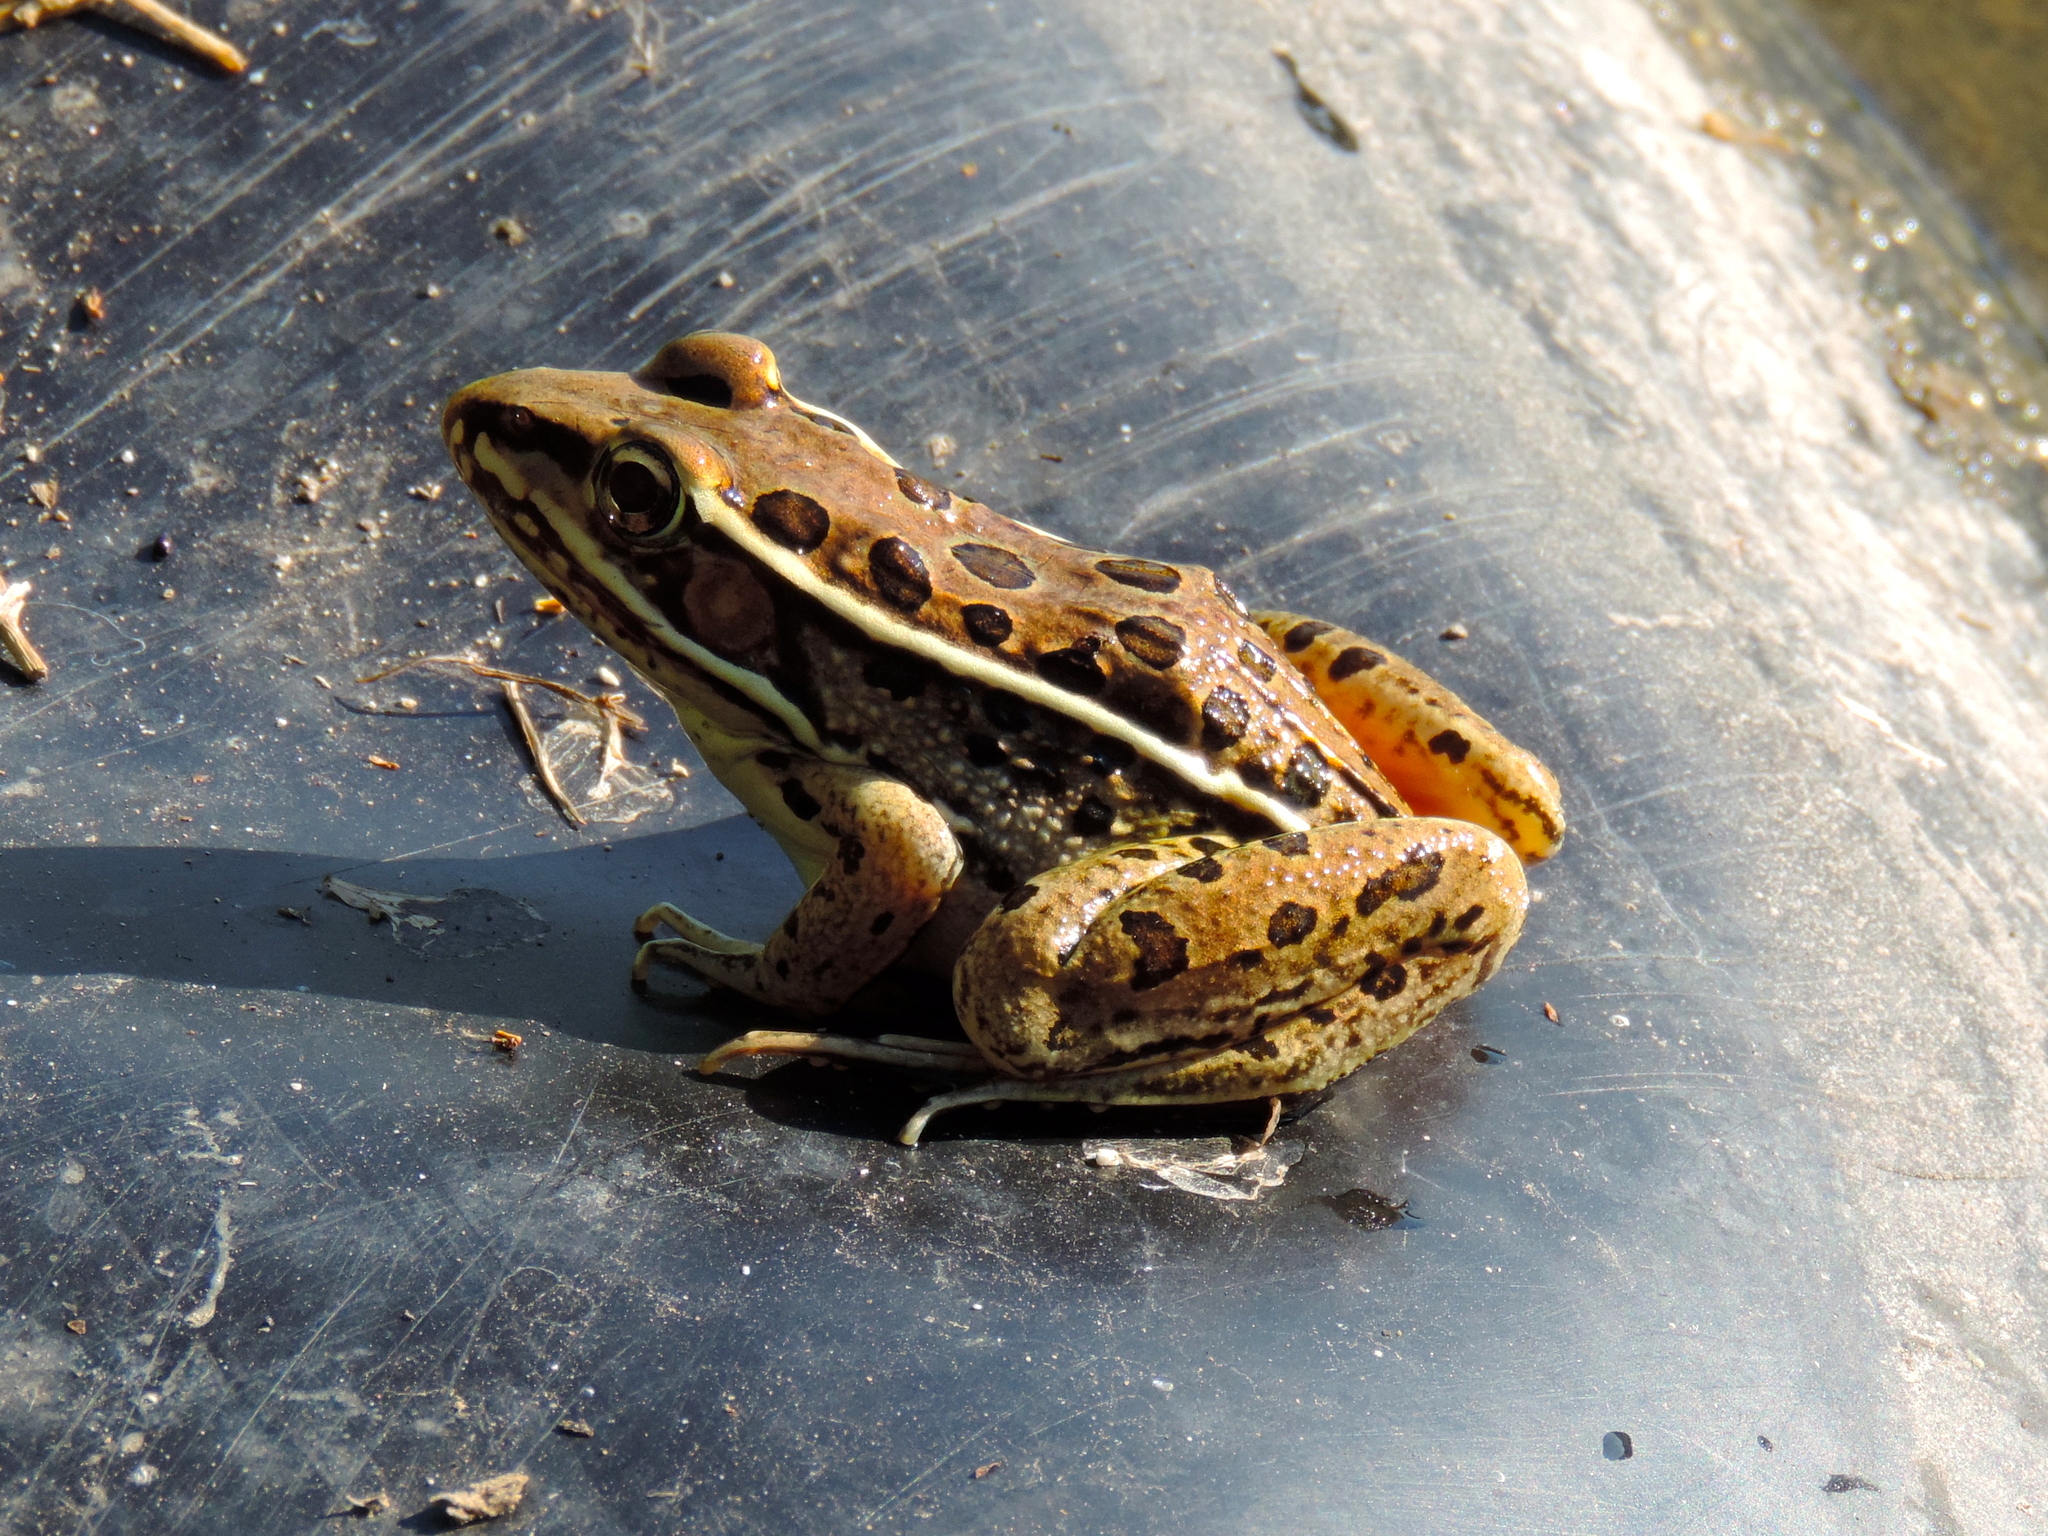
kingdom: Animalia
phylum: Chordata
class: Amphibia
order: Anura
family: Ranidae
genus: Lithobates
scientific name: Lithobates magnaocularis
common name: Northwest mexico leopard frog
